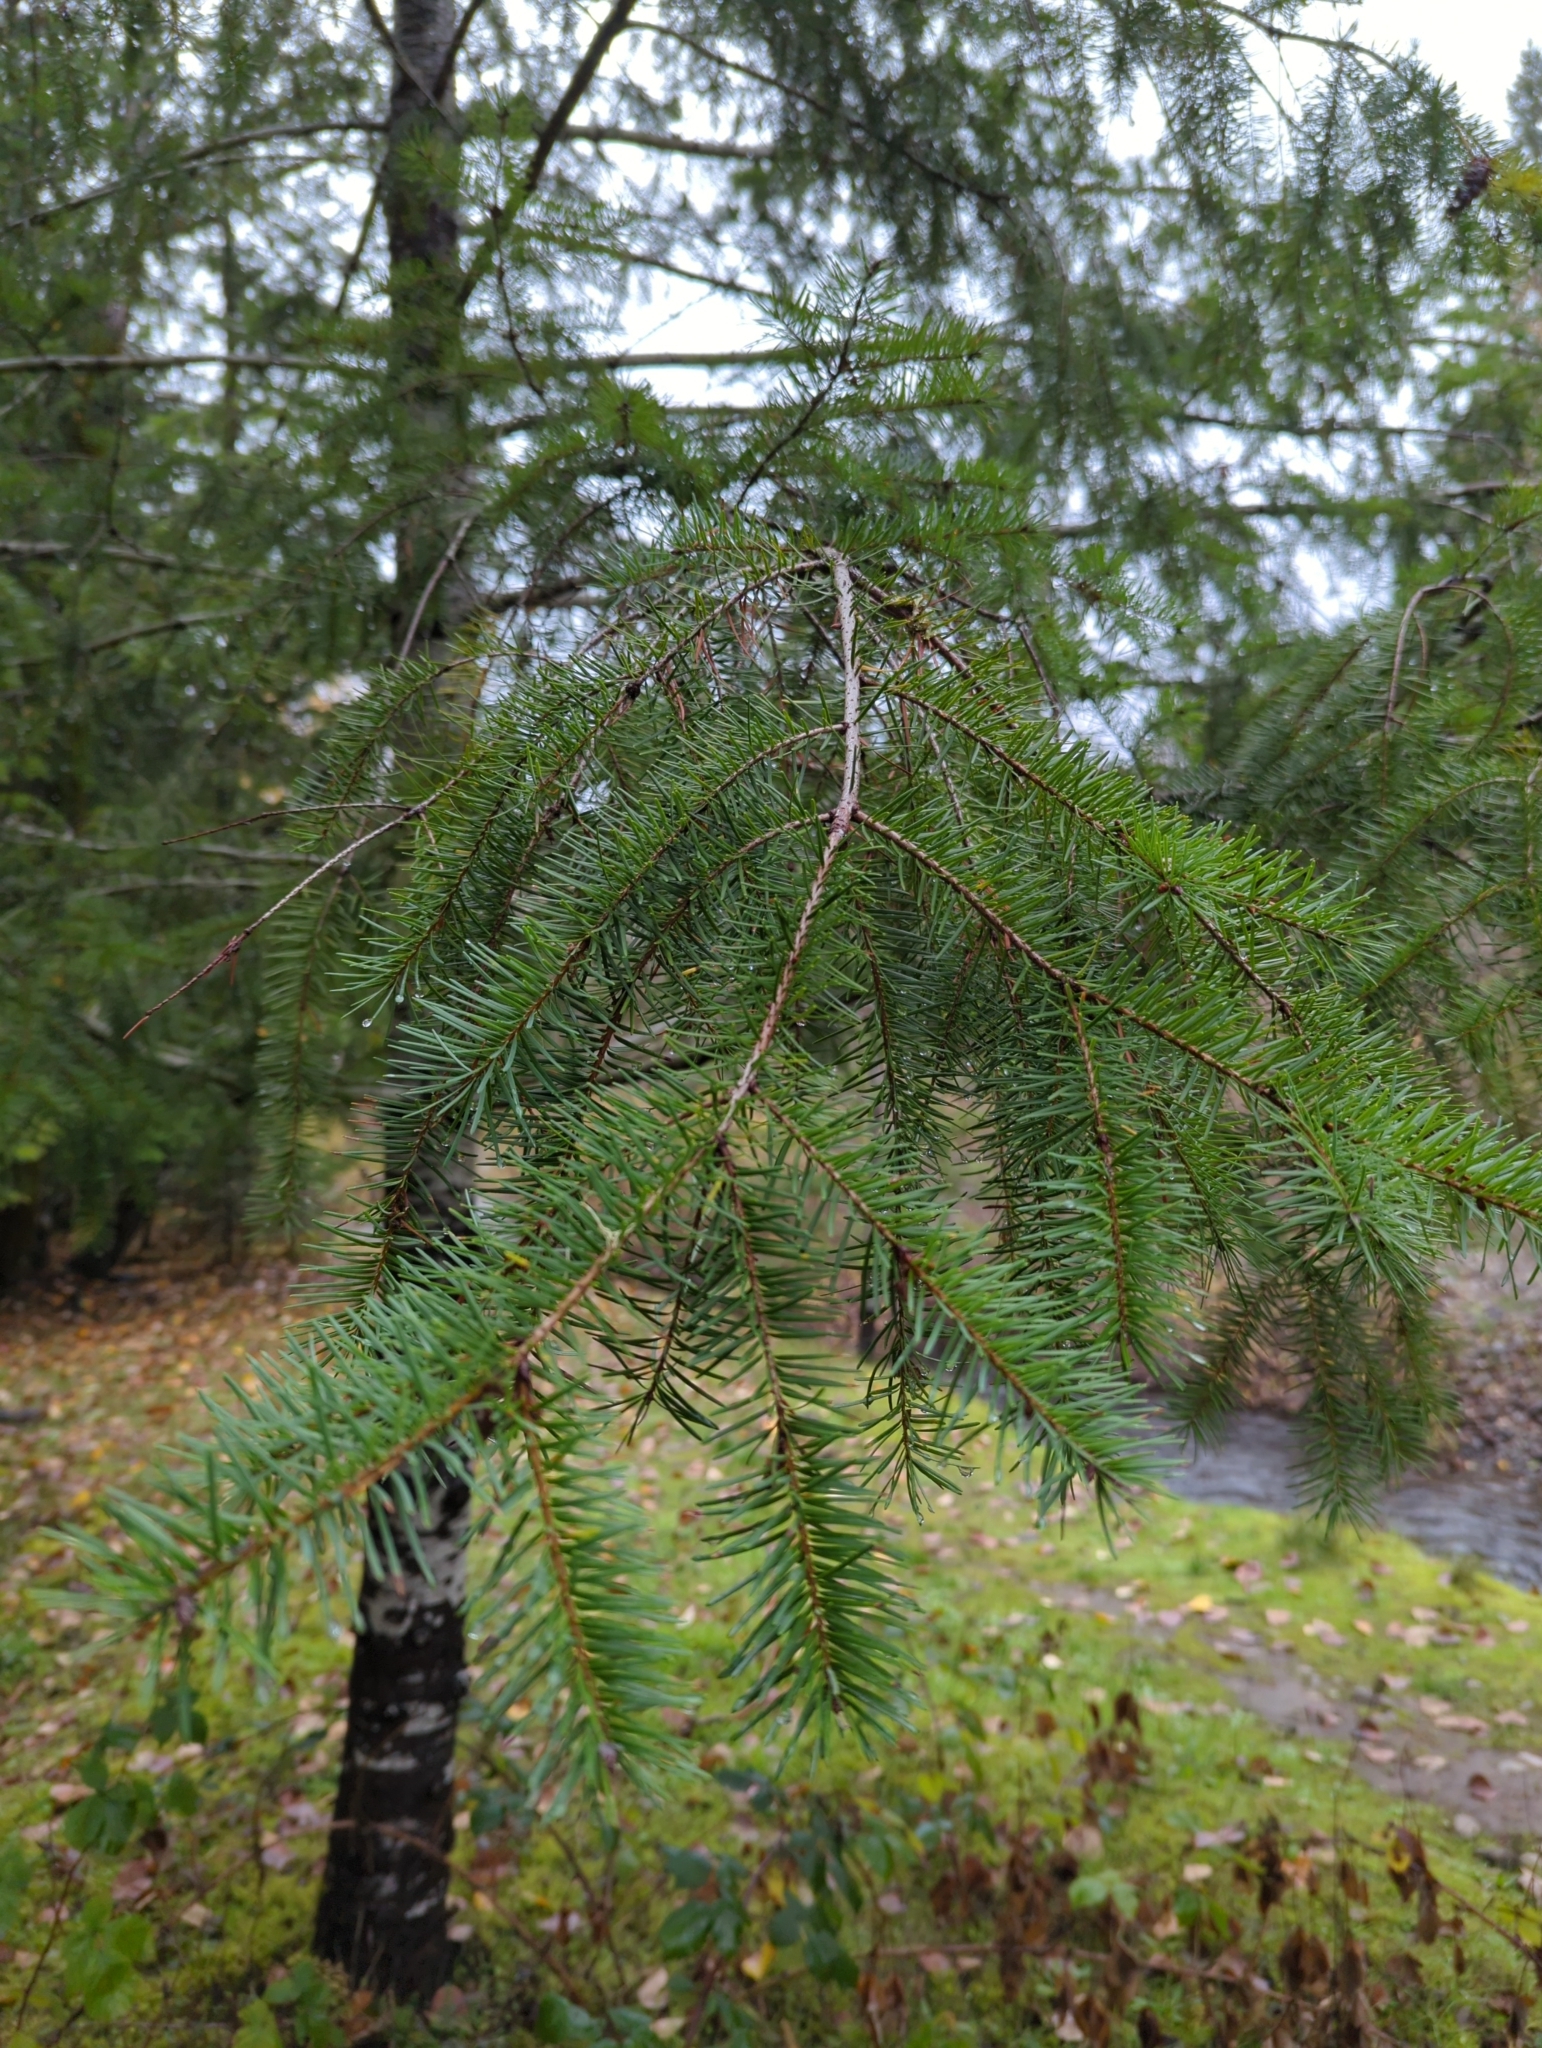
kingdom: Plantae
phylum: Tracheophyta
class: Pinopsida
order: Pinales
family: Pinaceae
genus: Pseudotsuga
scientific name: Pseudotsuga menziesii
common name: Douglas fir
